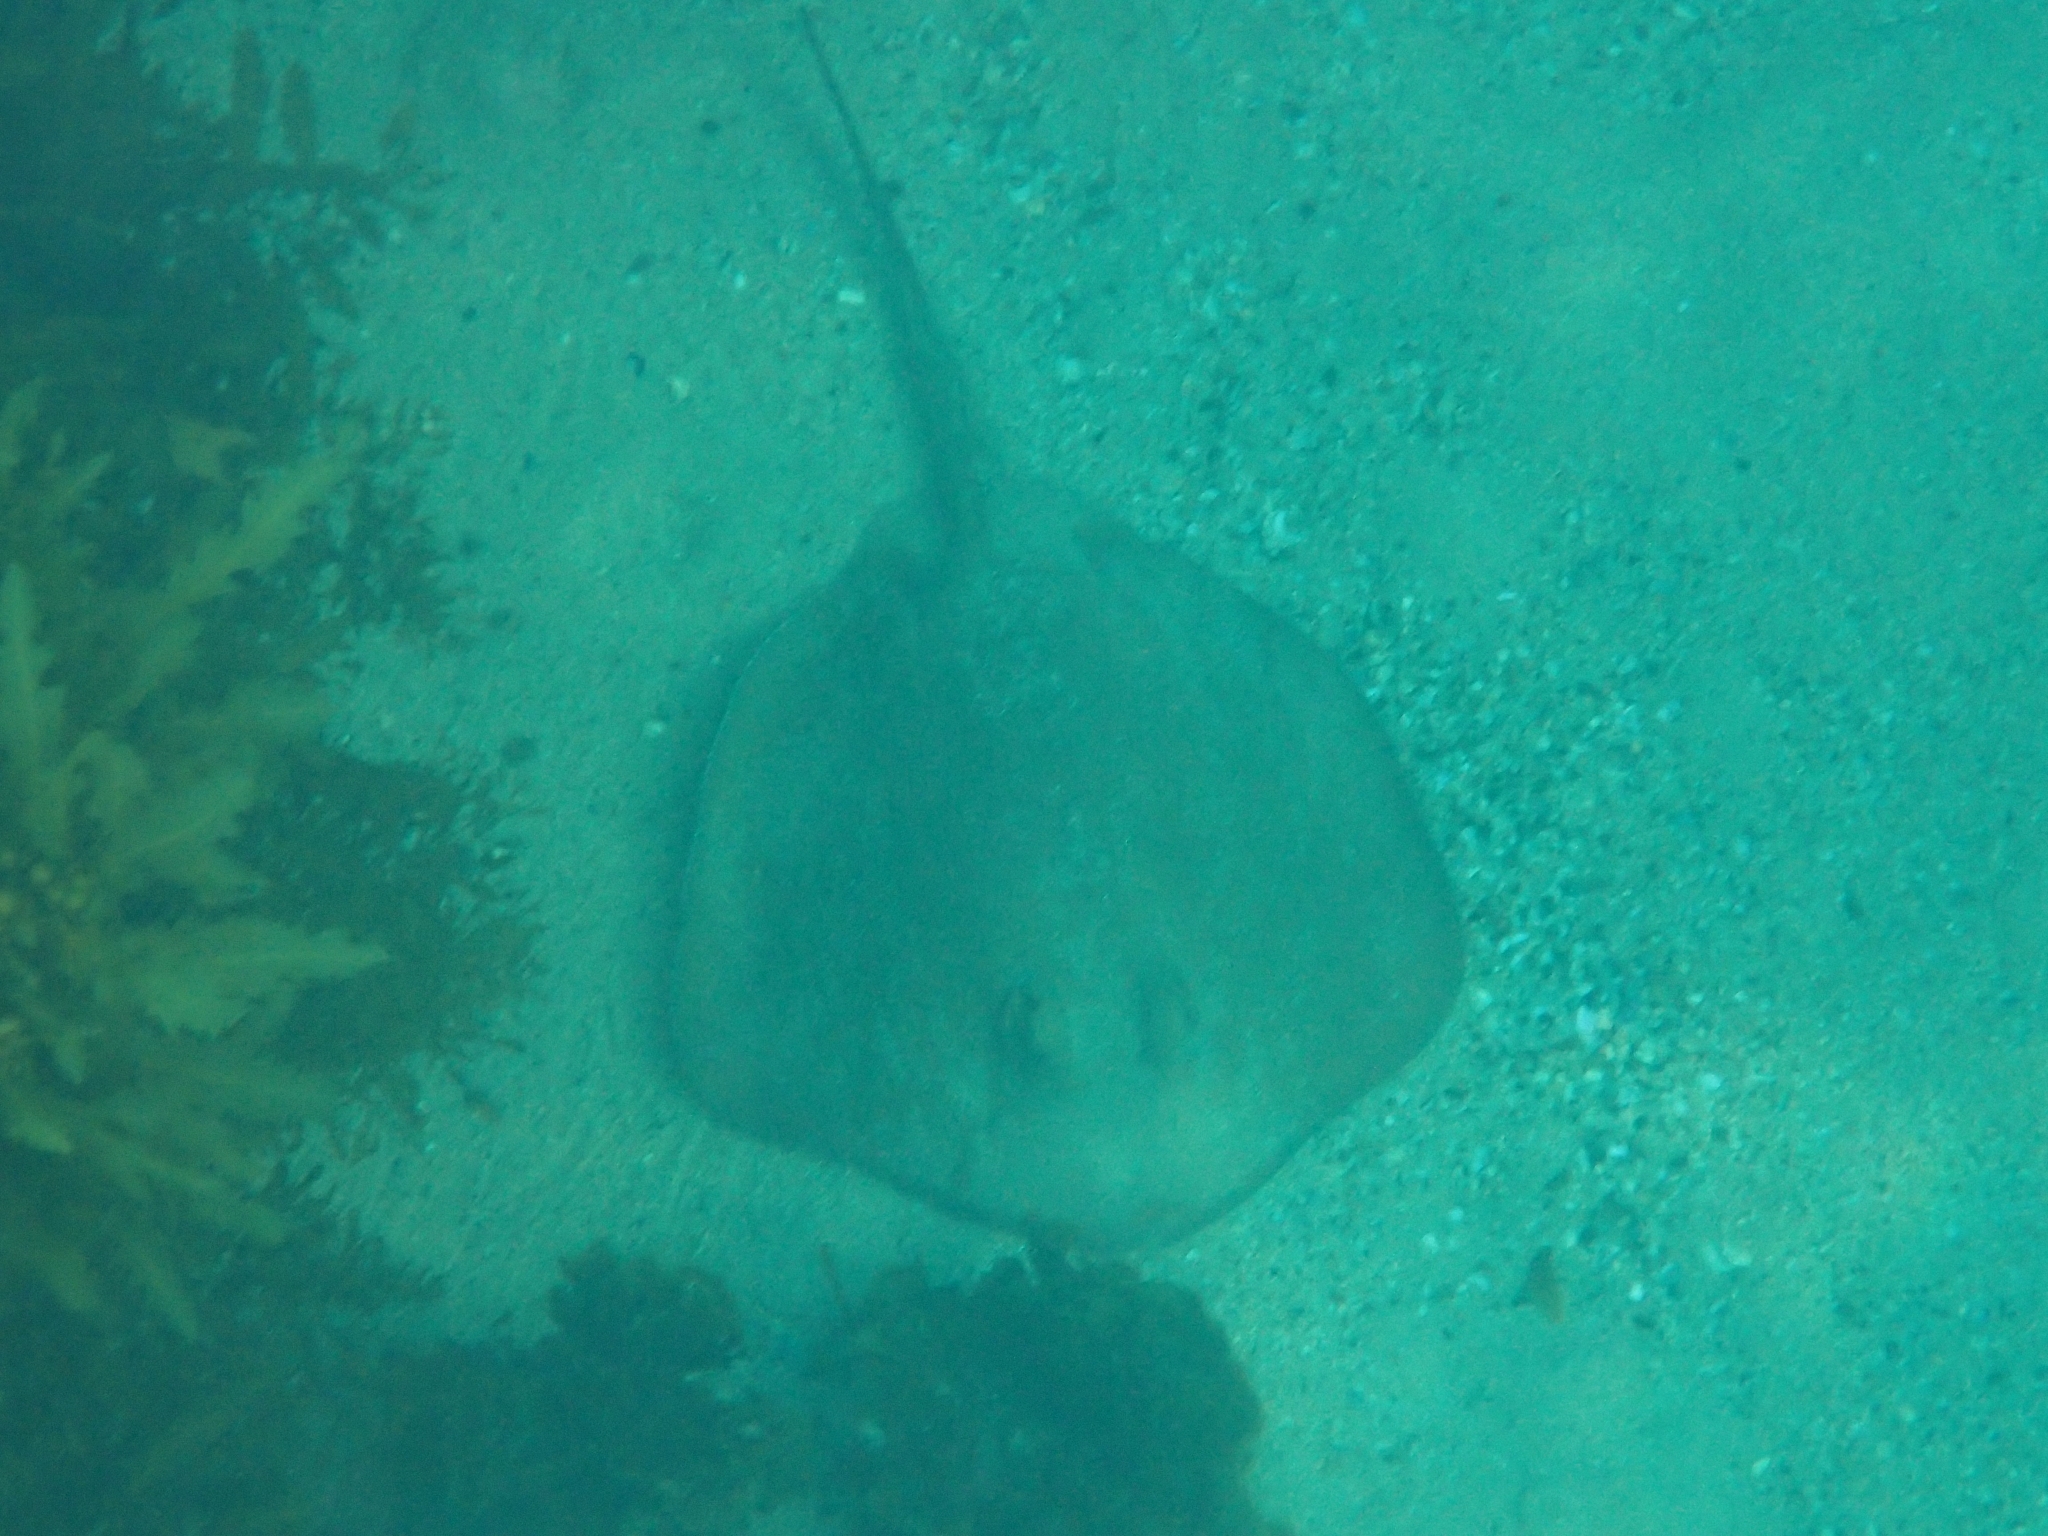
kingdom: Animalia
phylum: Chordata
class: Elasmobranchii
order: Myliobatiformes
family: Urolophidae
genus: Trygonoptera
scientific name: Trygonoptera testacea
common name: Common stingaree
